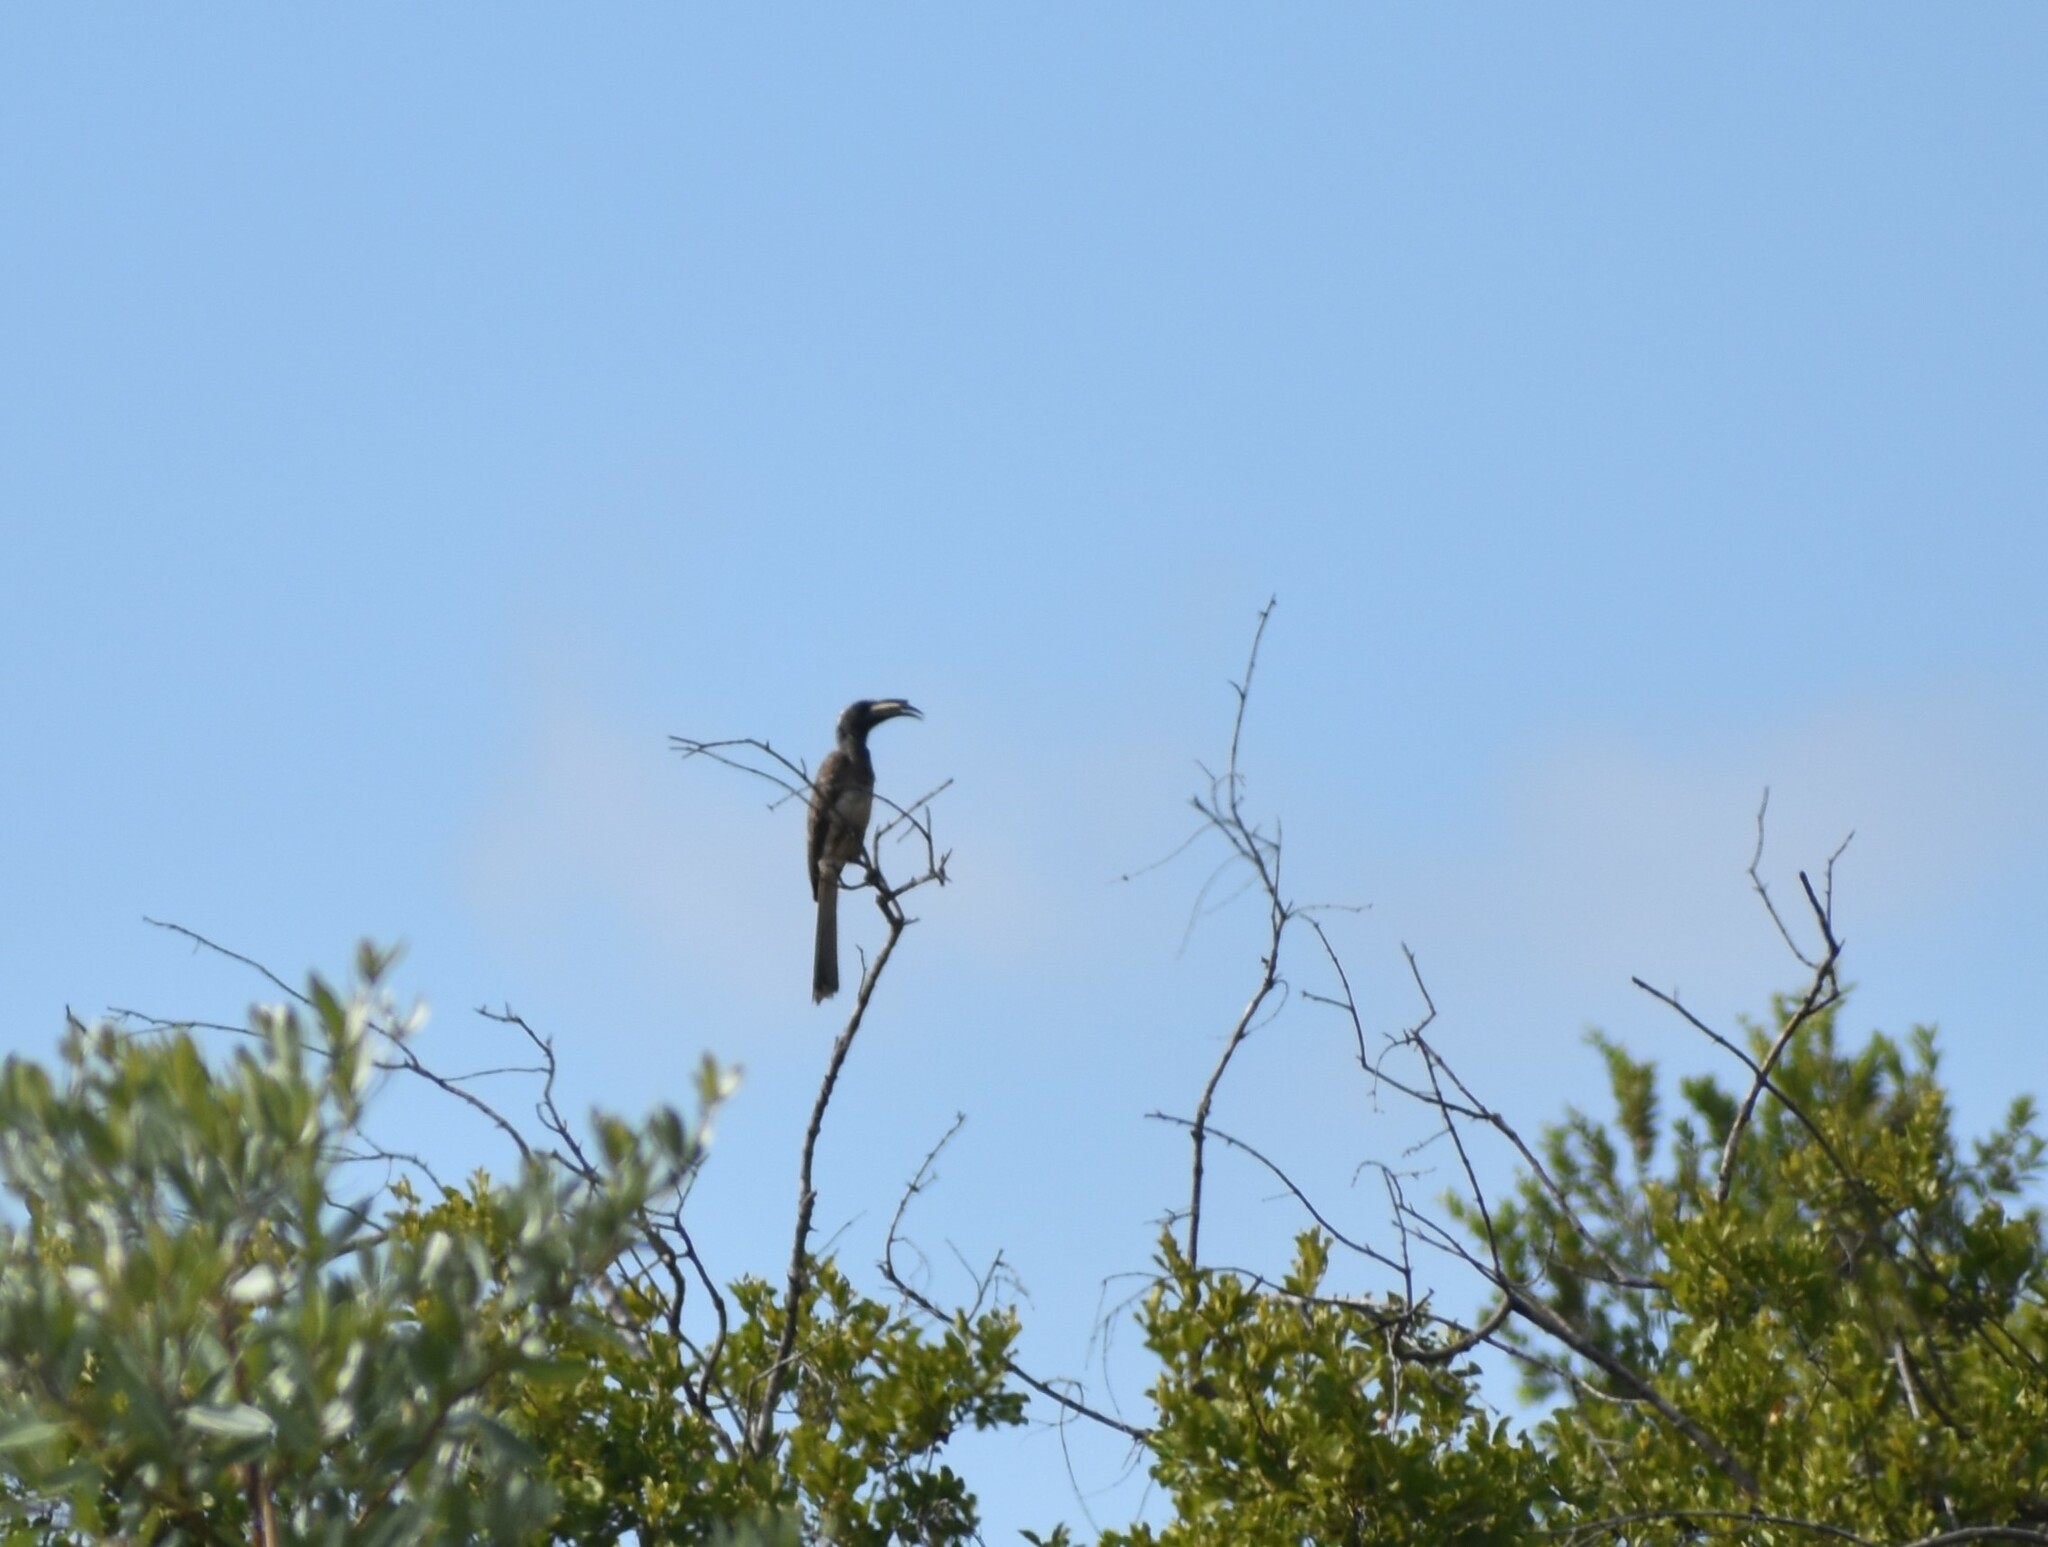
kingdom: Animalia
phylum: Chordata
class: Aves
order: Bucerotiformes
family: Bucerotidae
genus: Lophoceros
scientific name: Lophoceros nasutus
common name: African grey hornbill
